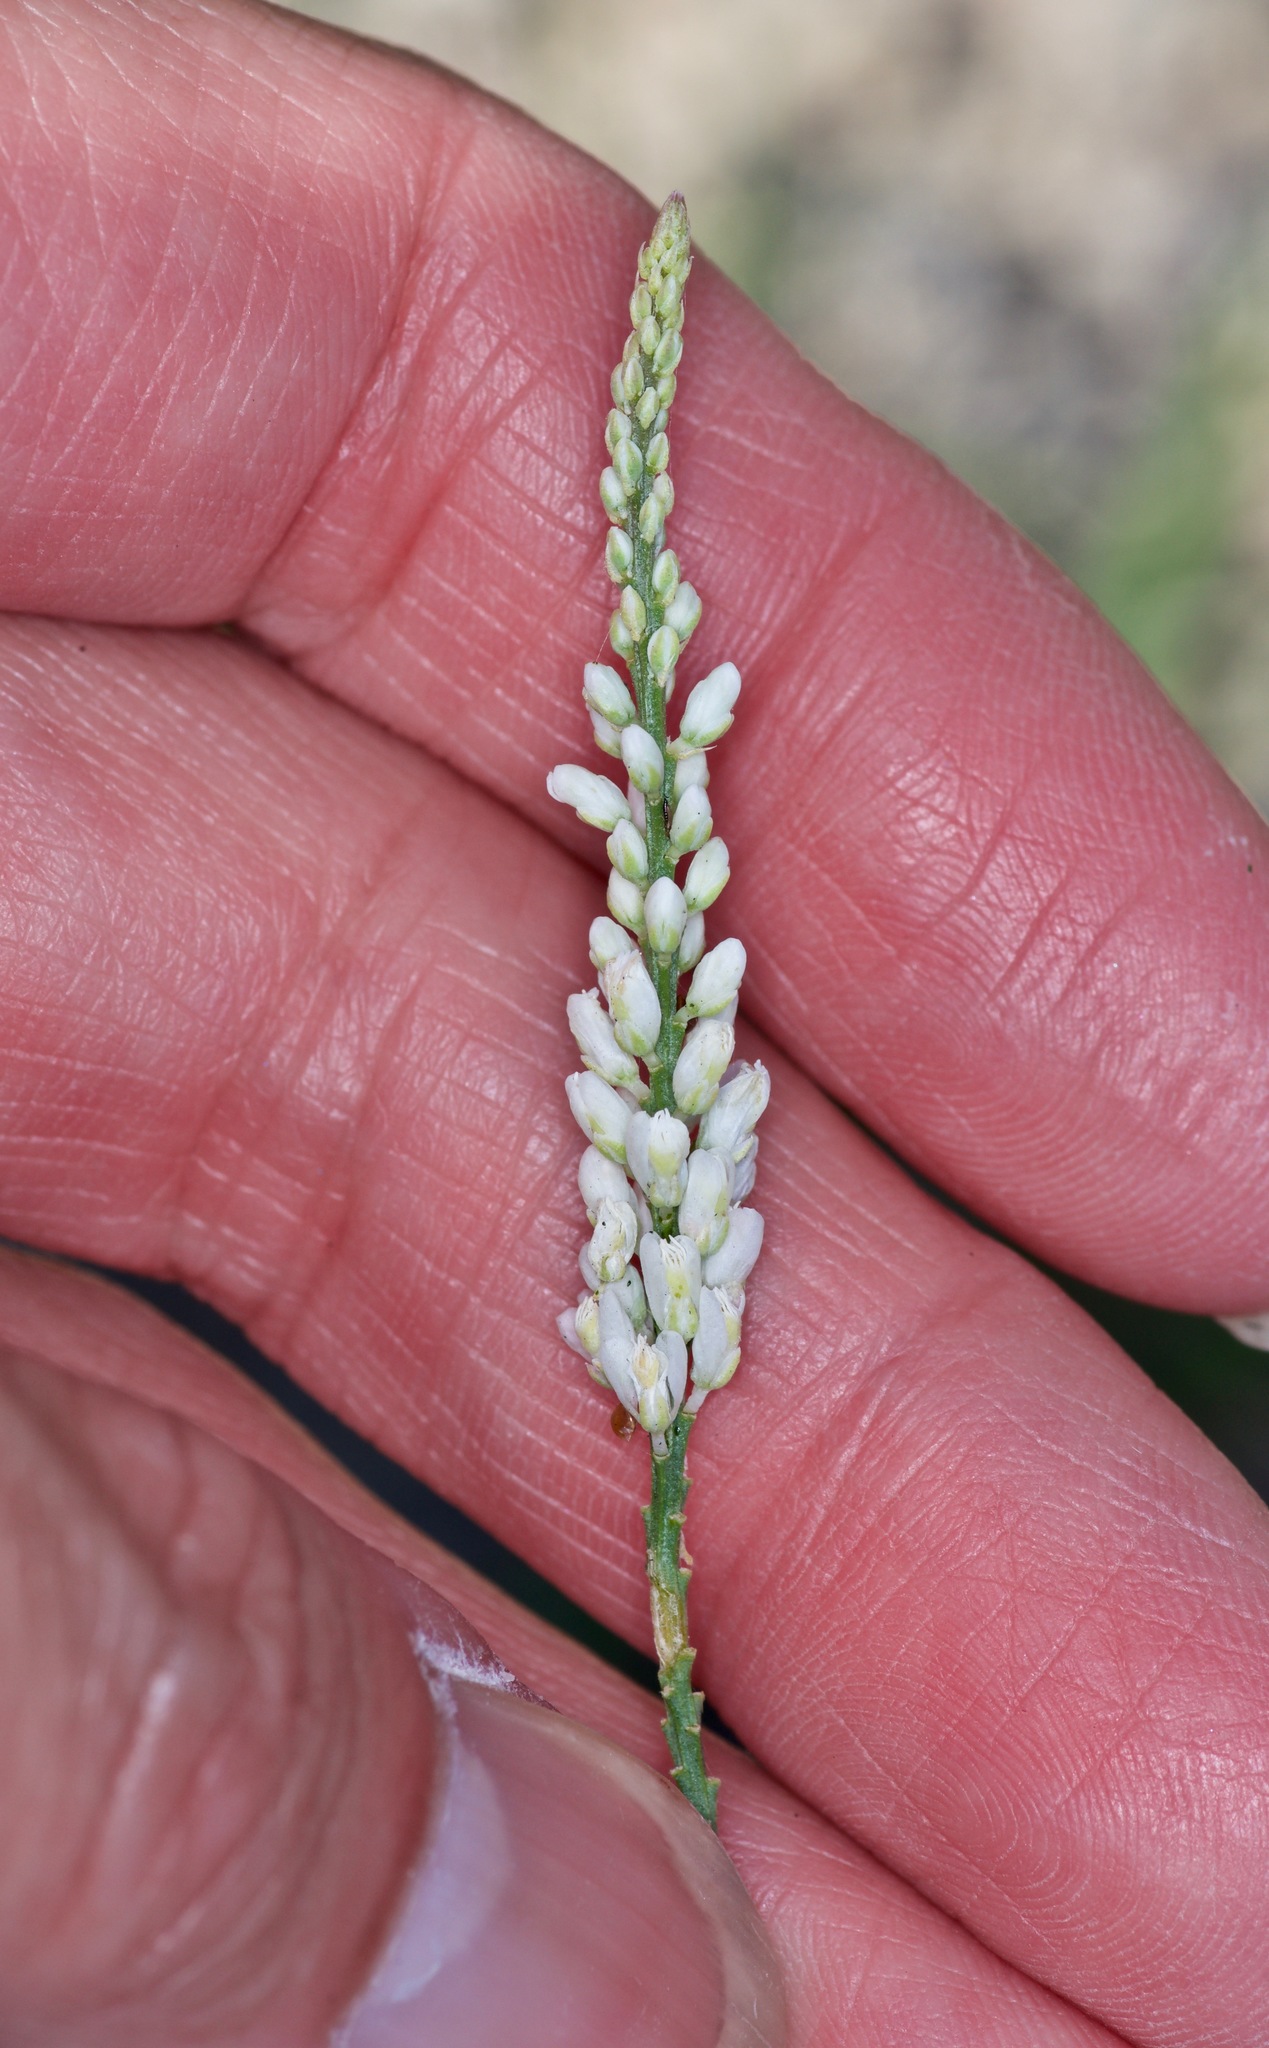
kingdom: Plantae
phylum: Tracheophyta
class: Magnoliopsida
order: Fabales
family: Polygalaceae
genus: Polygala
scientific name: Polygala alba
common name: White milkwort
